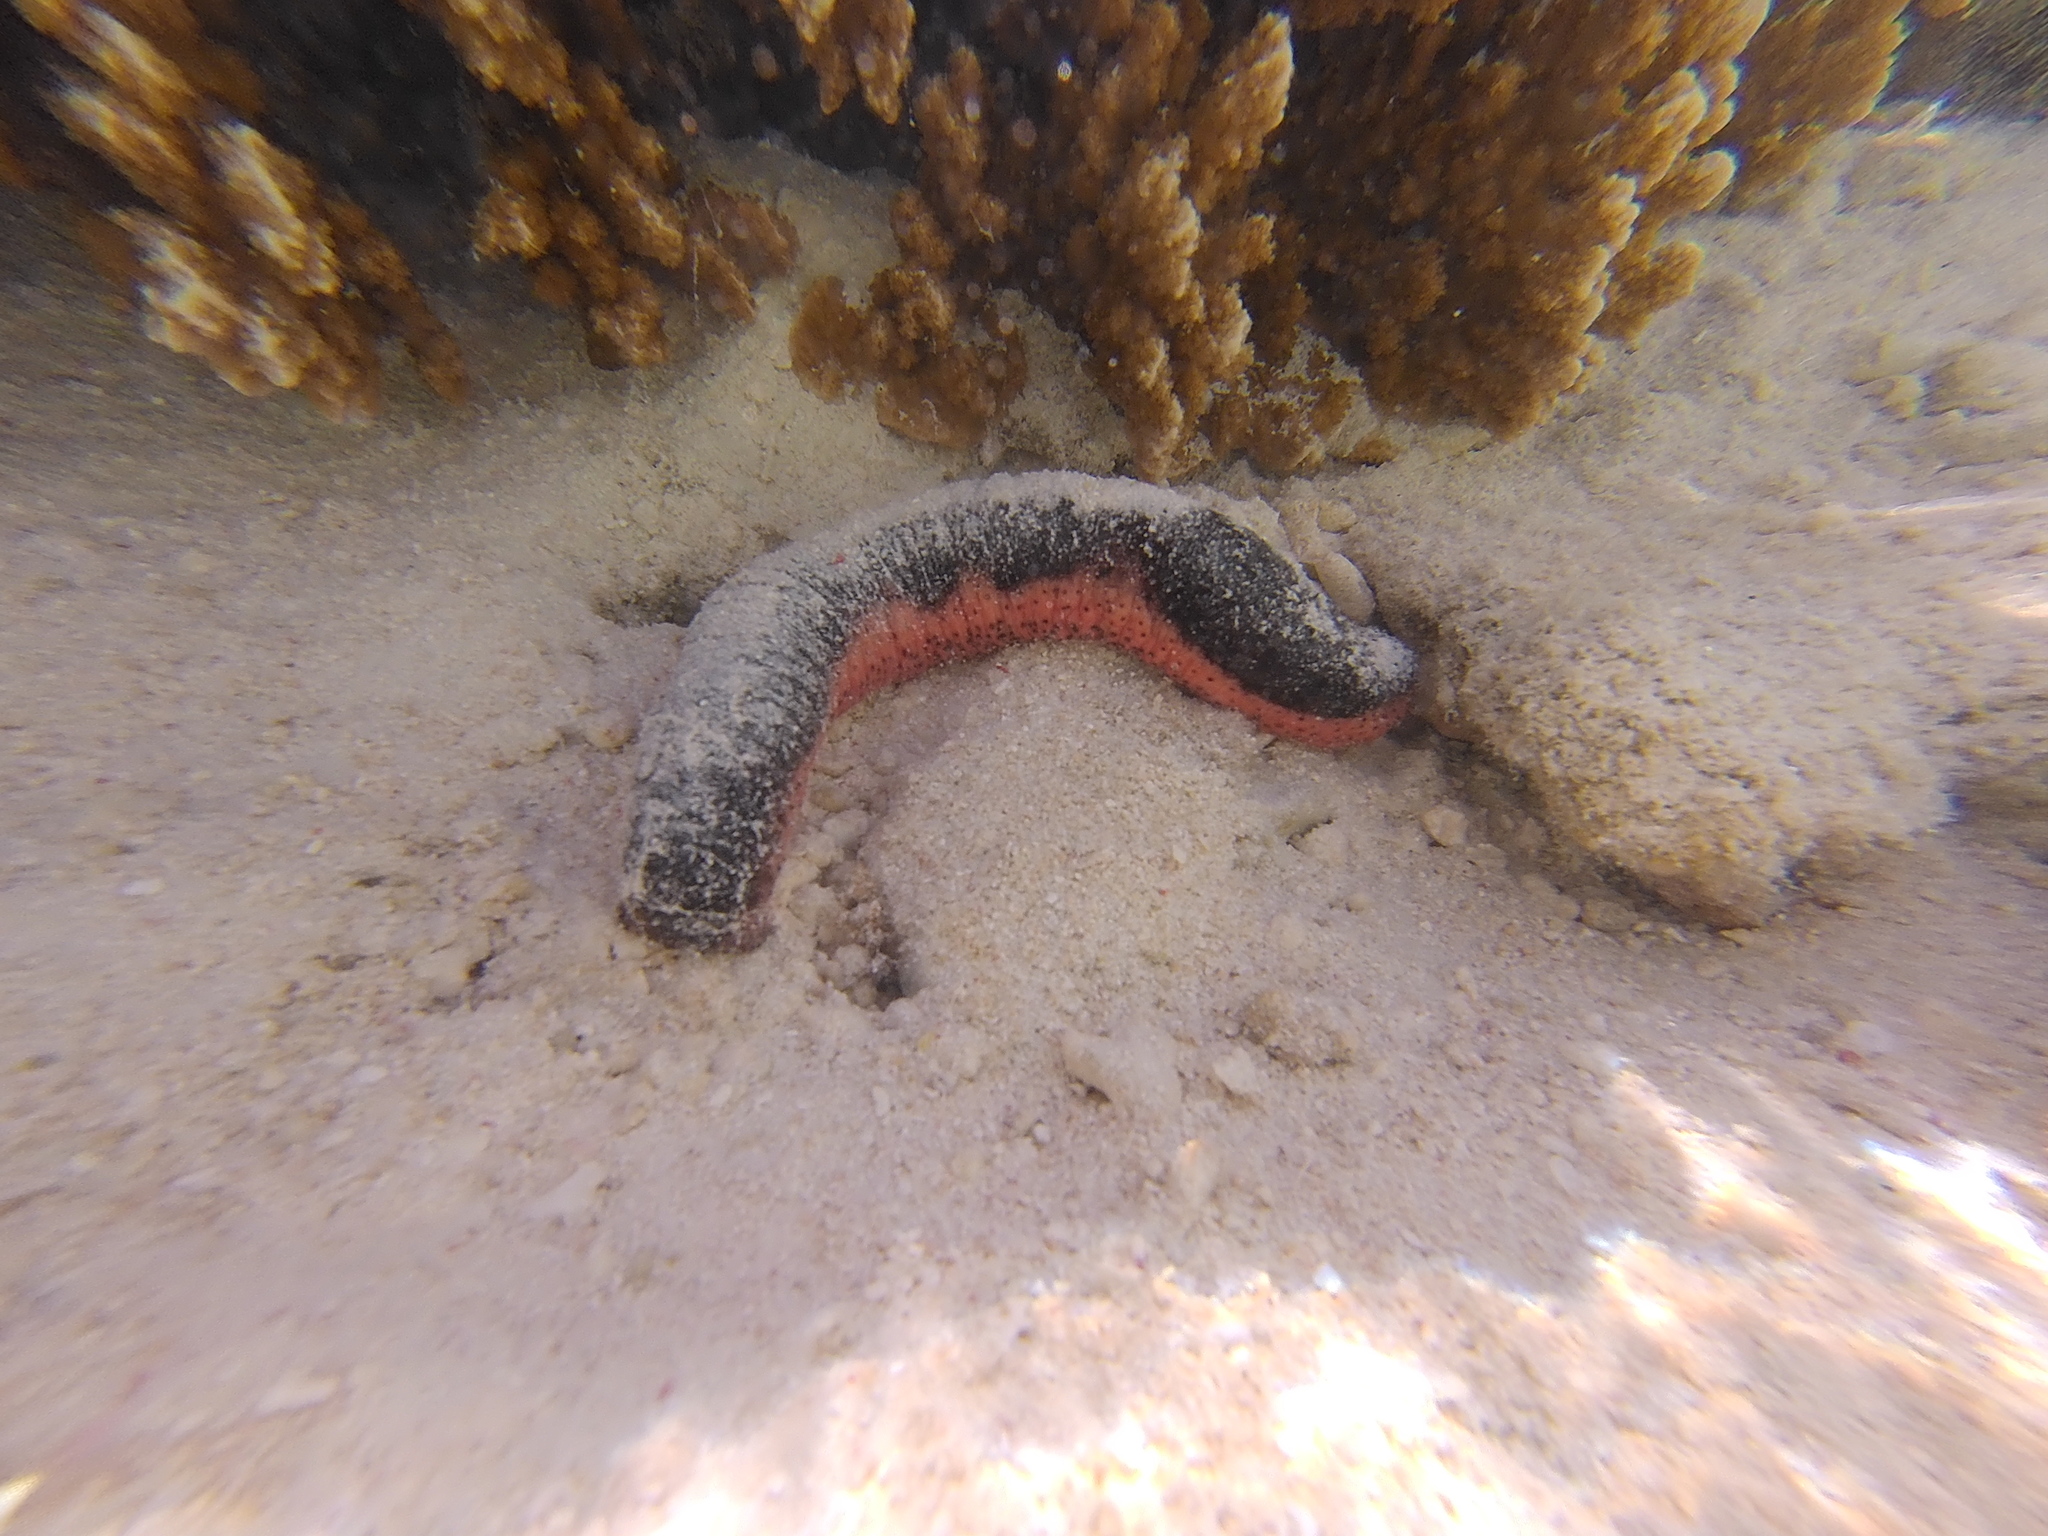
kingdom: Animalia
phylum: Echinodermata
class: Holothuroidea
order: Holothuriida
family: Holothuriidae
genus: Holothuria
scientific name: Holothuria edulis
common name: Pinkfish
